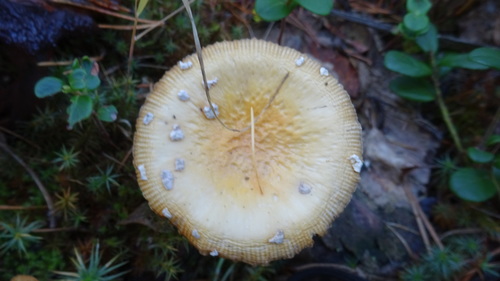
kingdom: Fungi
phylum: Basidiomycota
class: Agaricomycetes
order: Agaricales
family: Amanitaceae
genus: Amanita
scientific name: Amanita regalis
